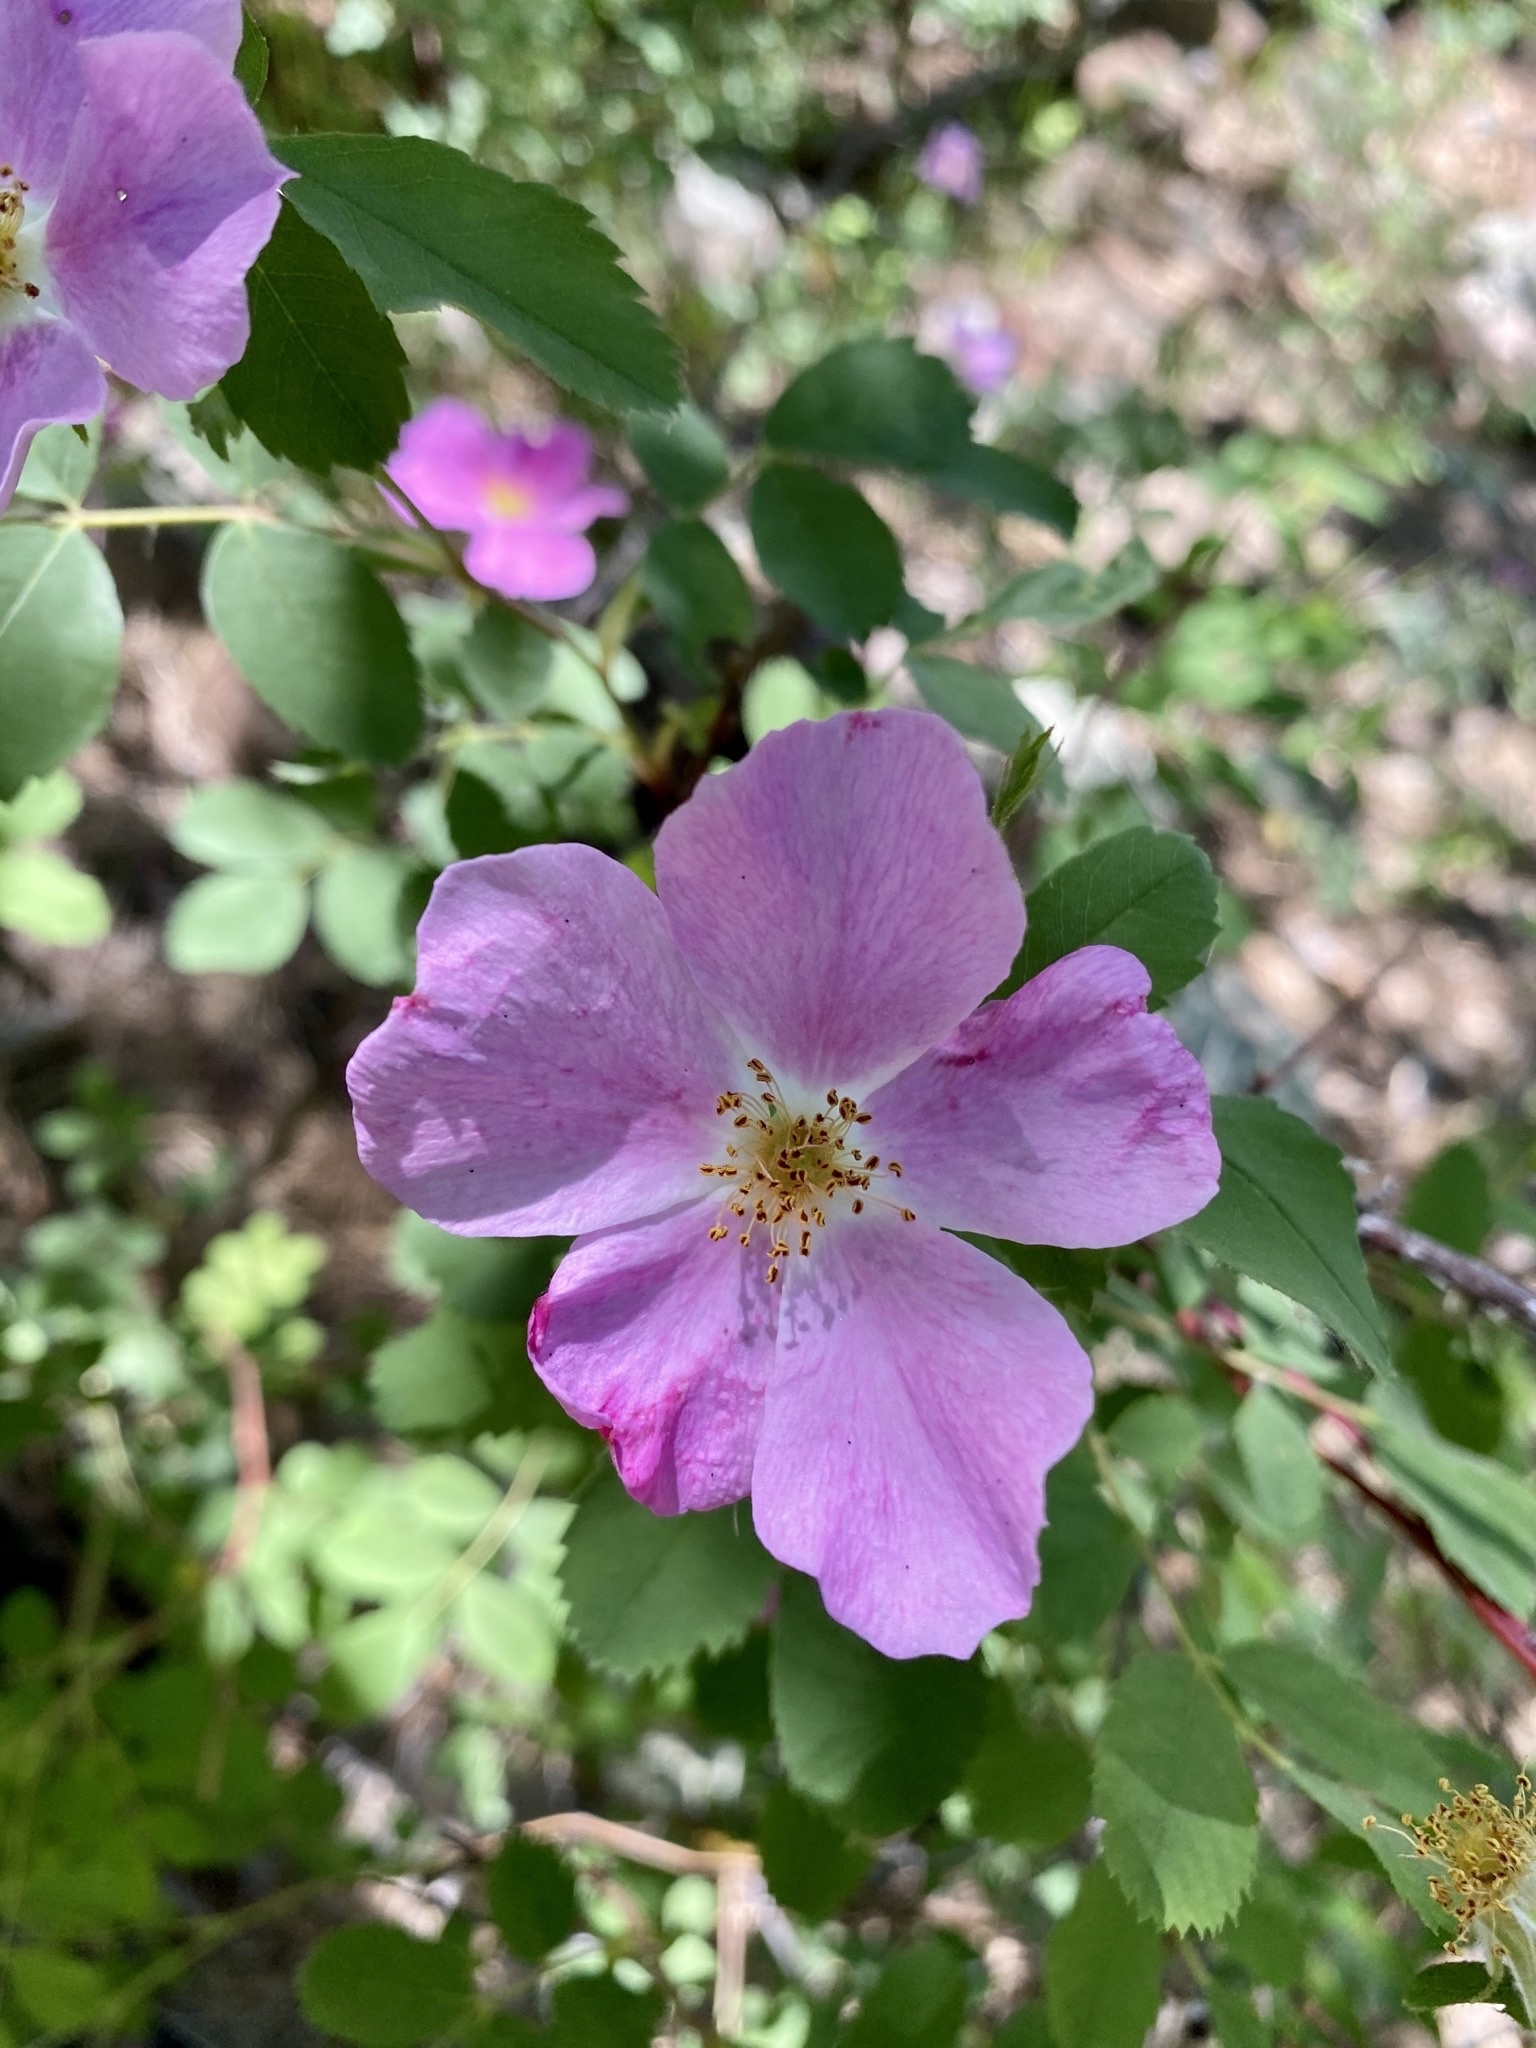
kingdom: Plantae
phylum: Tracheophyta
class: Magnoliopsida
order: Rosales
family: Rosaceae
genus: Rosa
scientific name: Rosa woodsii
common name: Woods's rose
